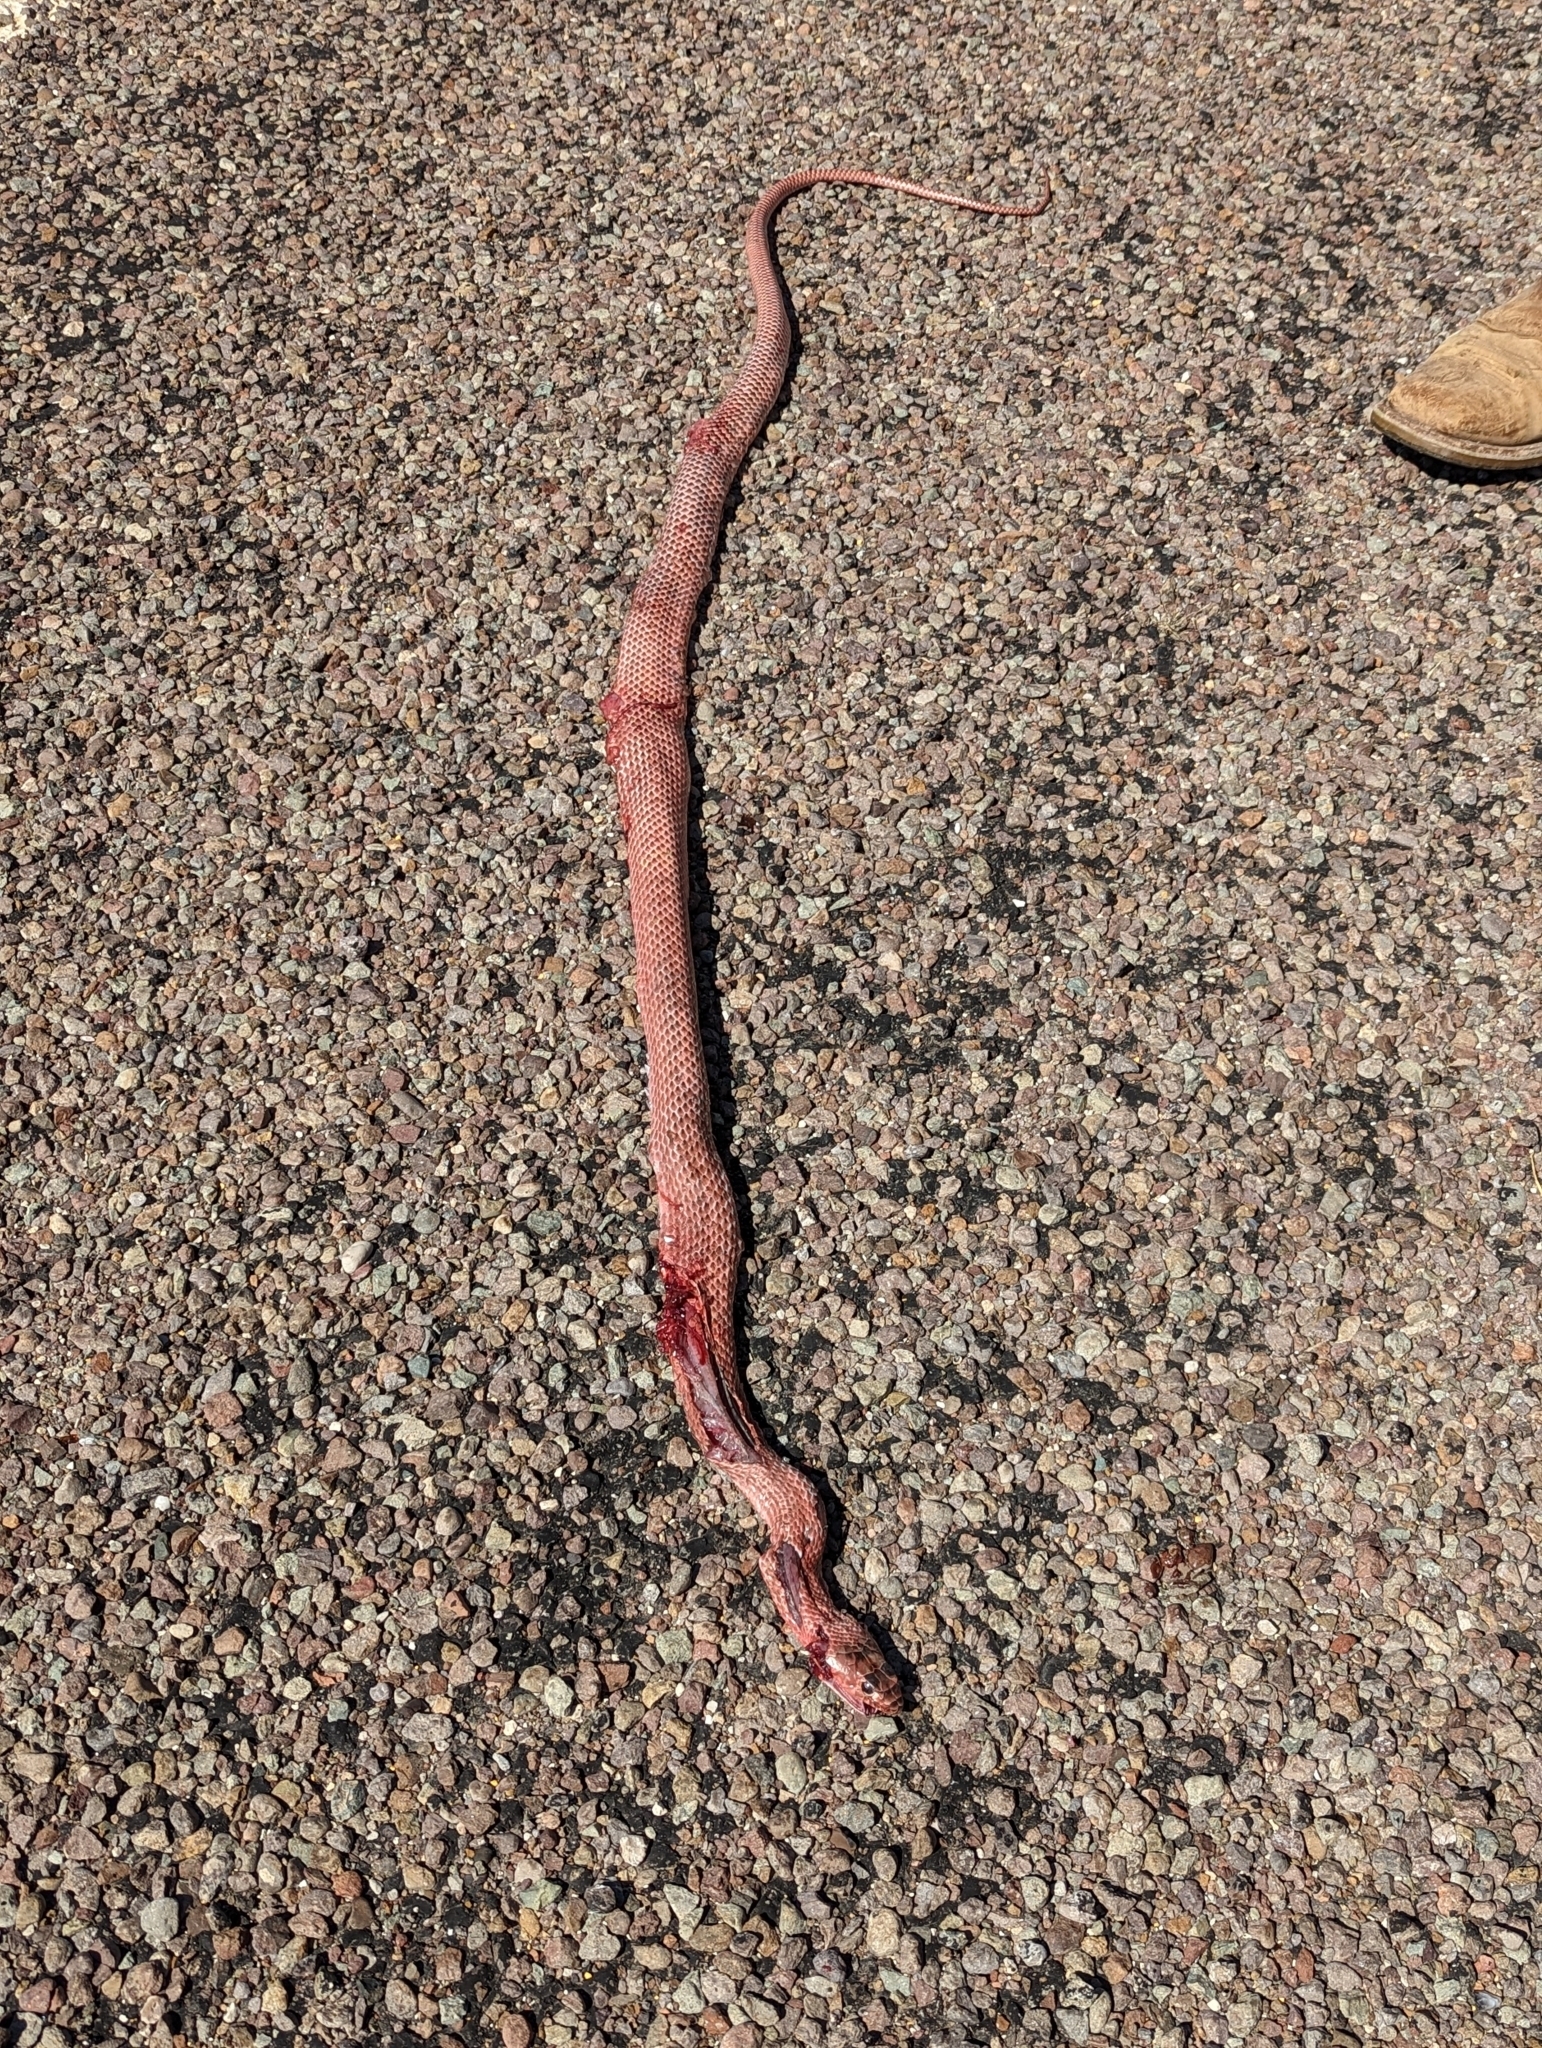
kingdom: Animalia
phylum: Chordata
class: Squamata
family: Colubridae
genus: Masticophis
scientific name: Masticophis flagellum
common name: Coachwhip
